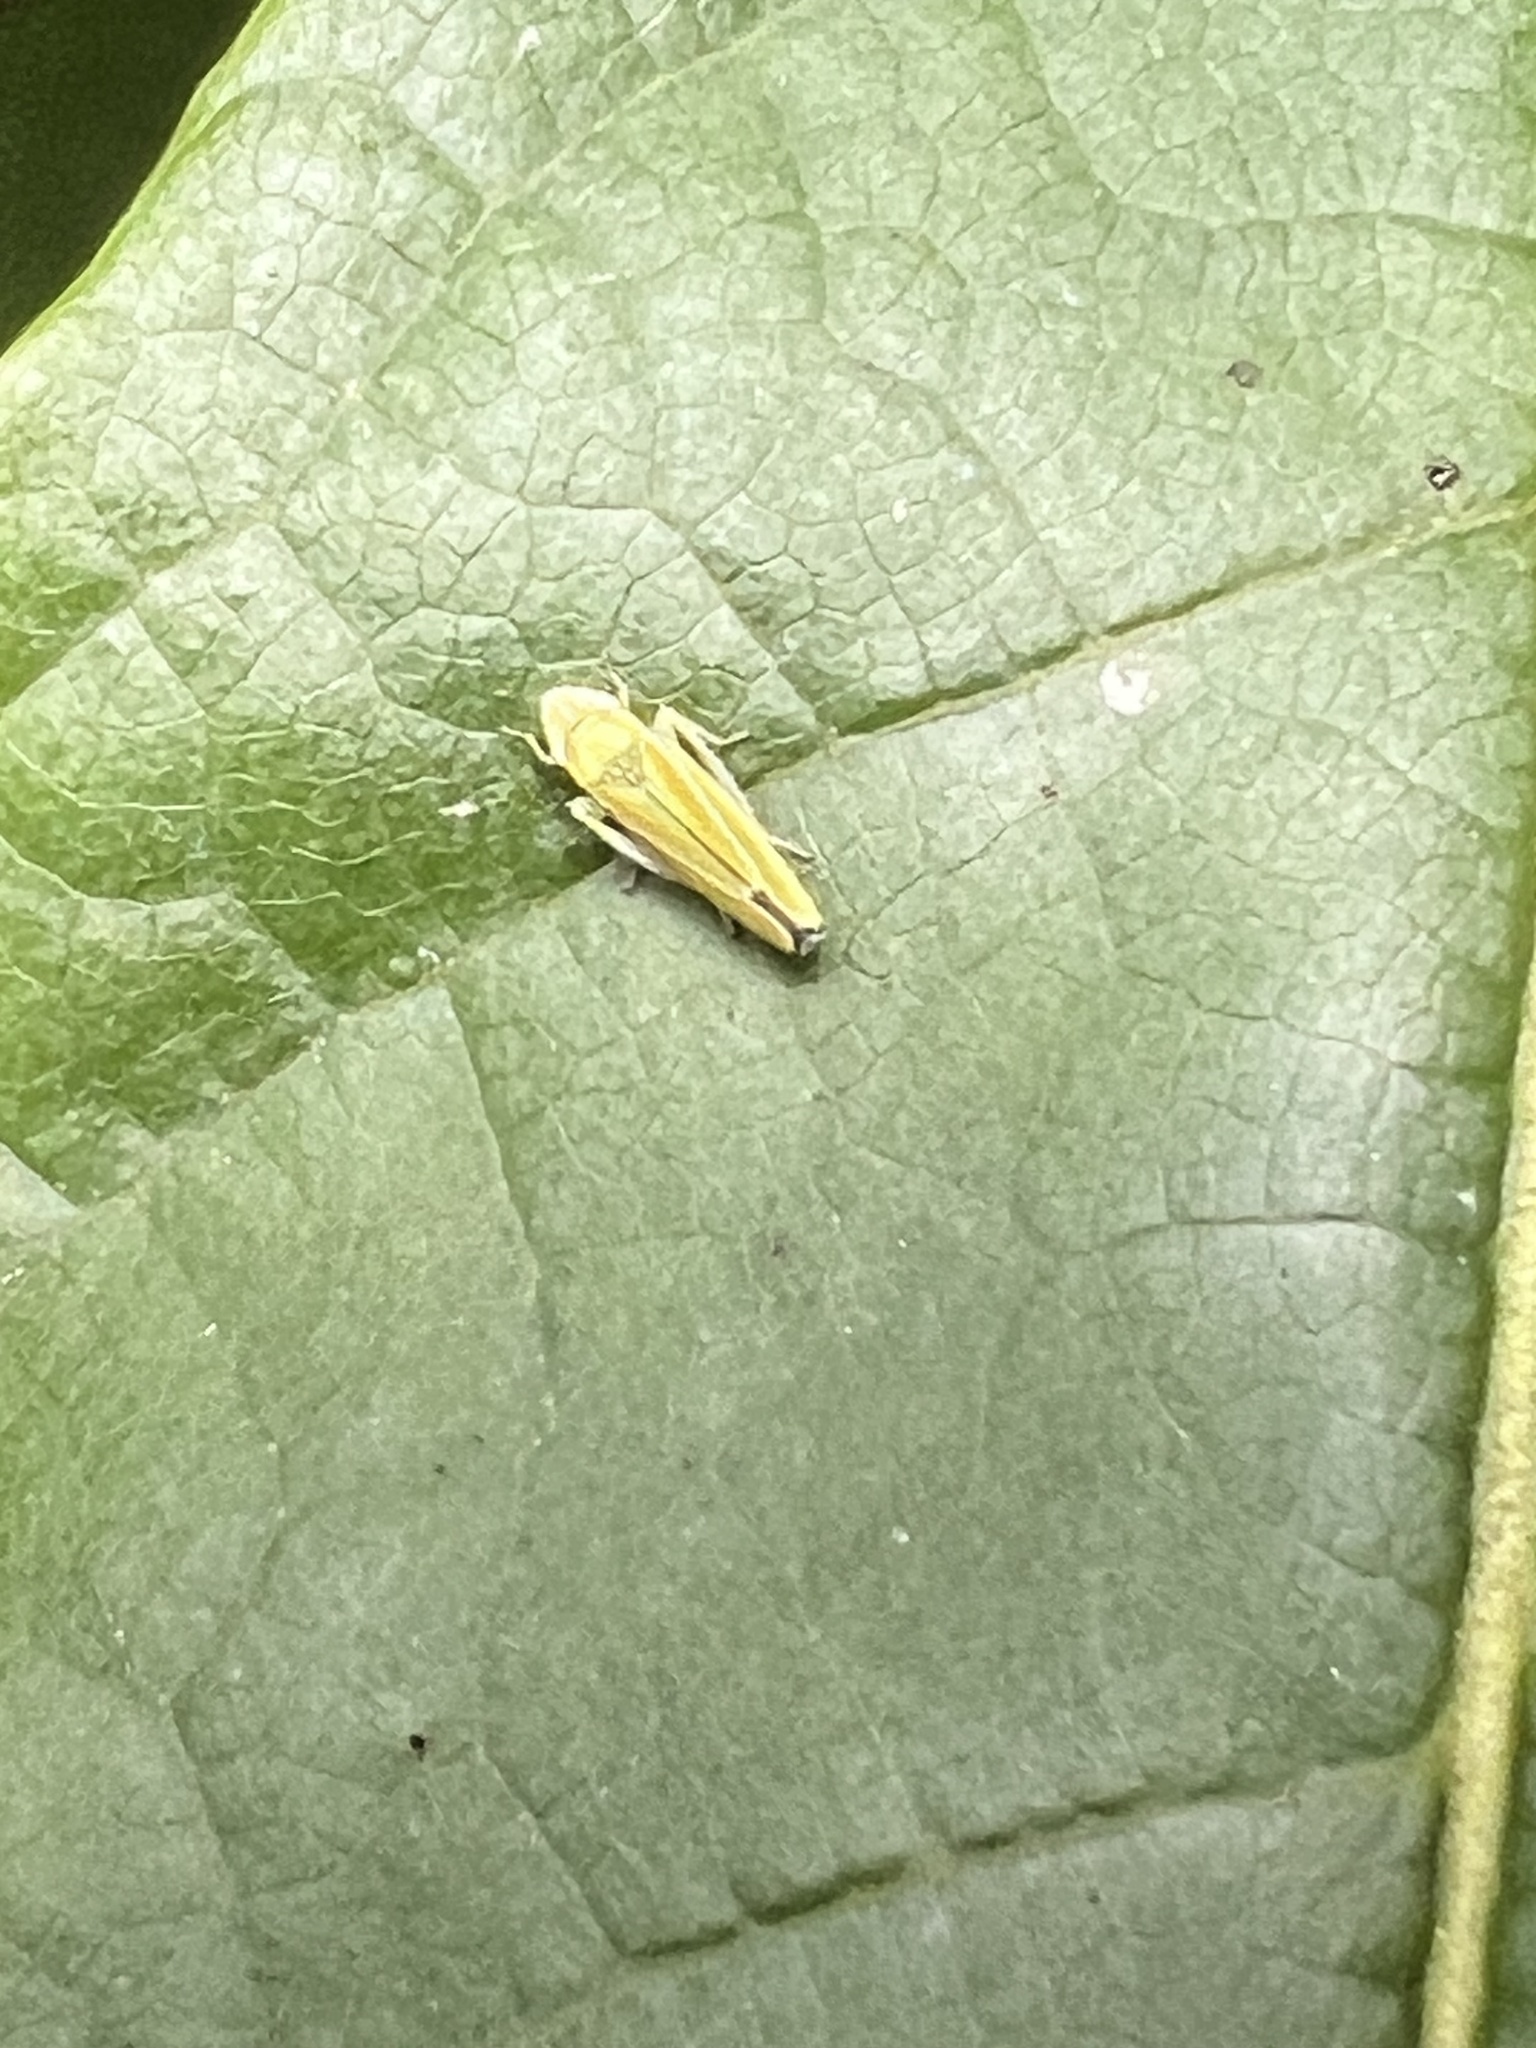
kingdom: Animalia
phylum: Arthropoda
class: Insecta
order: Hemiptera
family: Cicadellidae
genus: Graphocephala
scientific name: Graphocephala versuta
